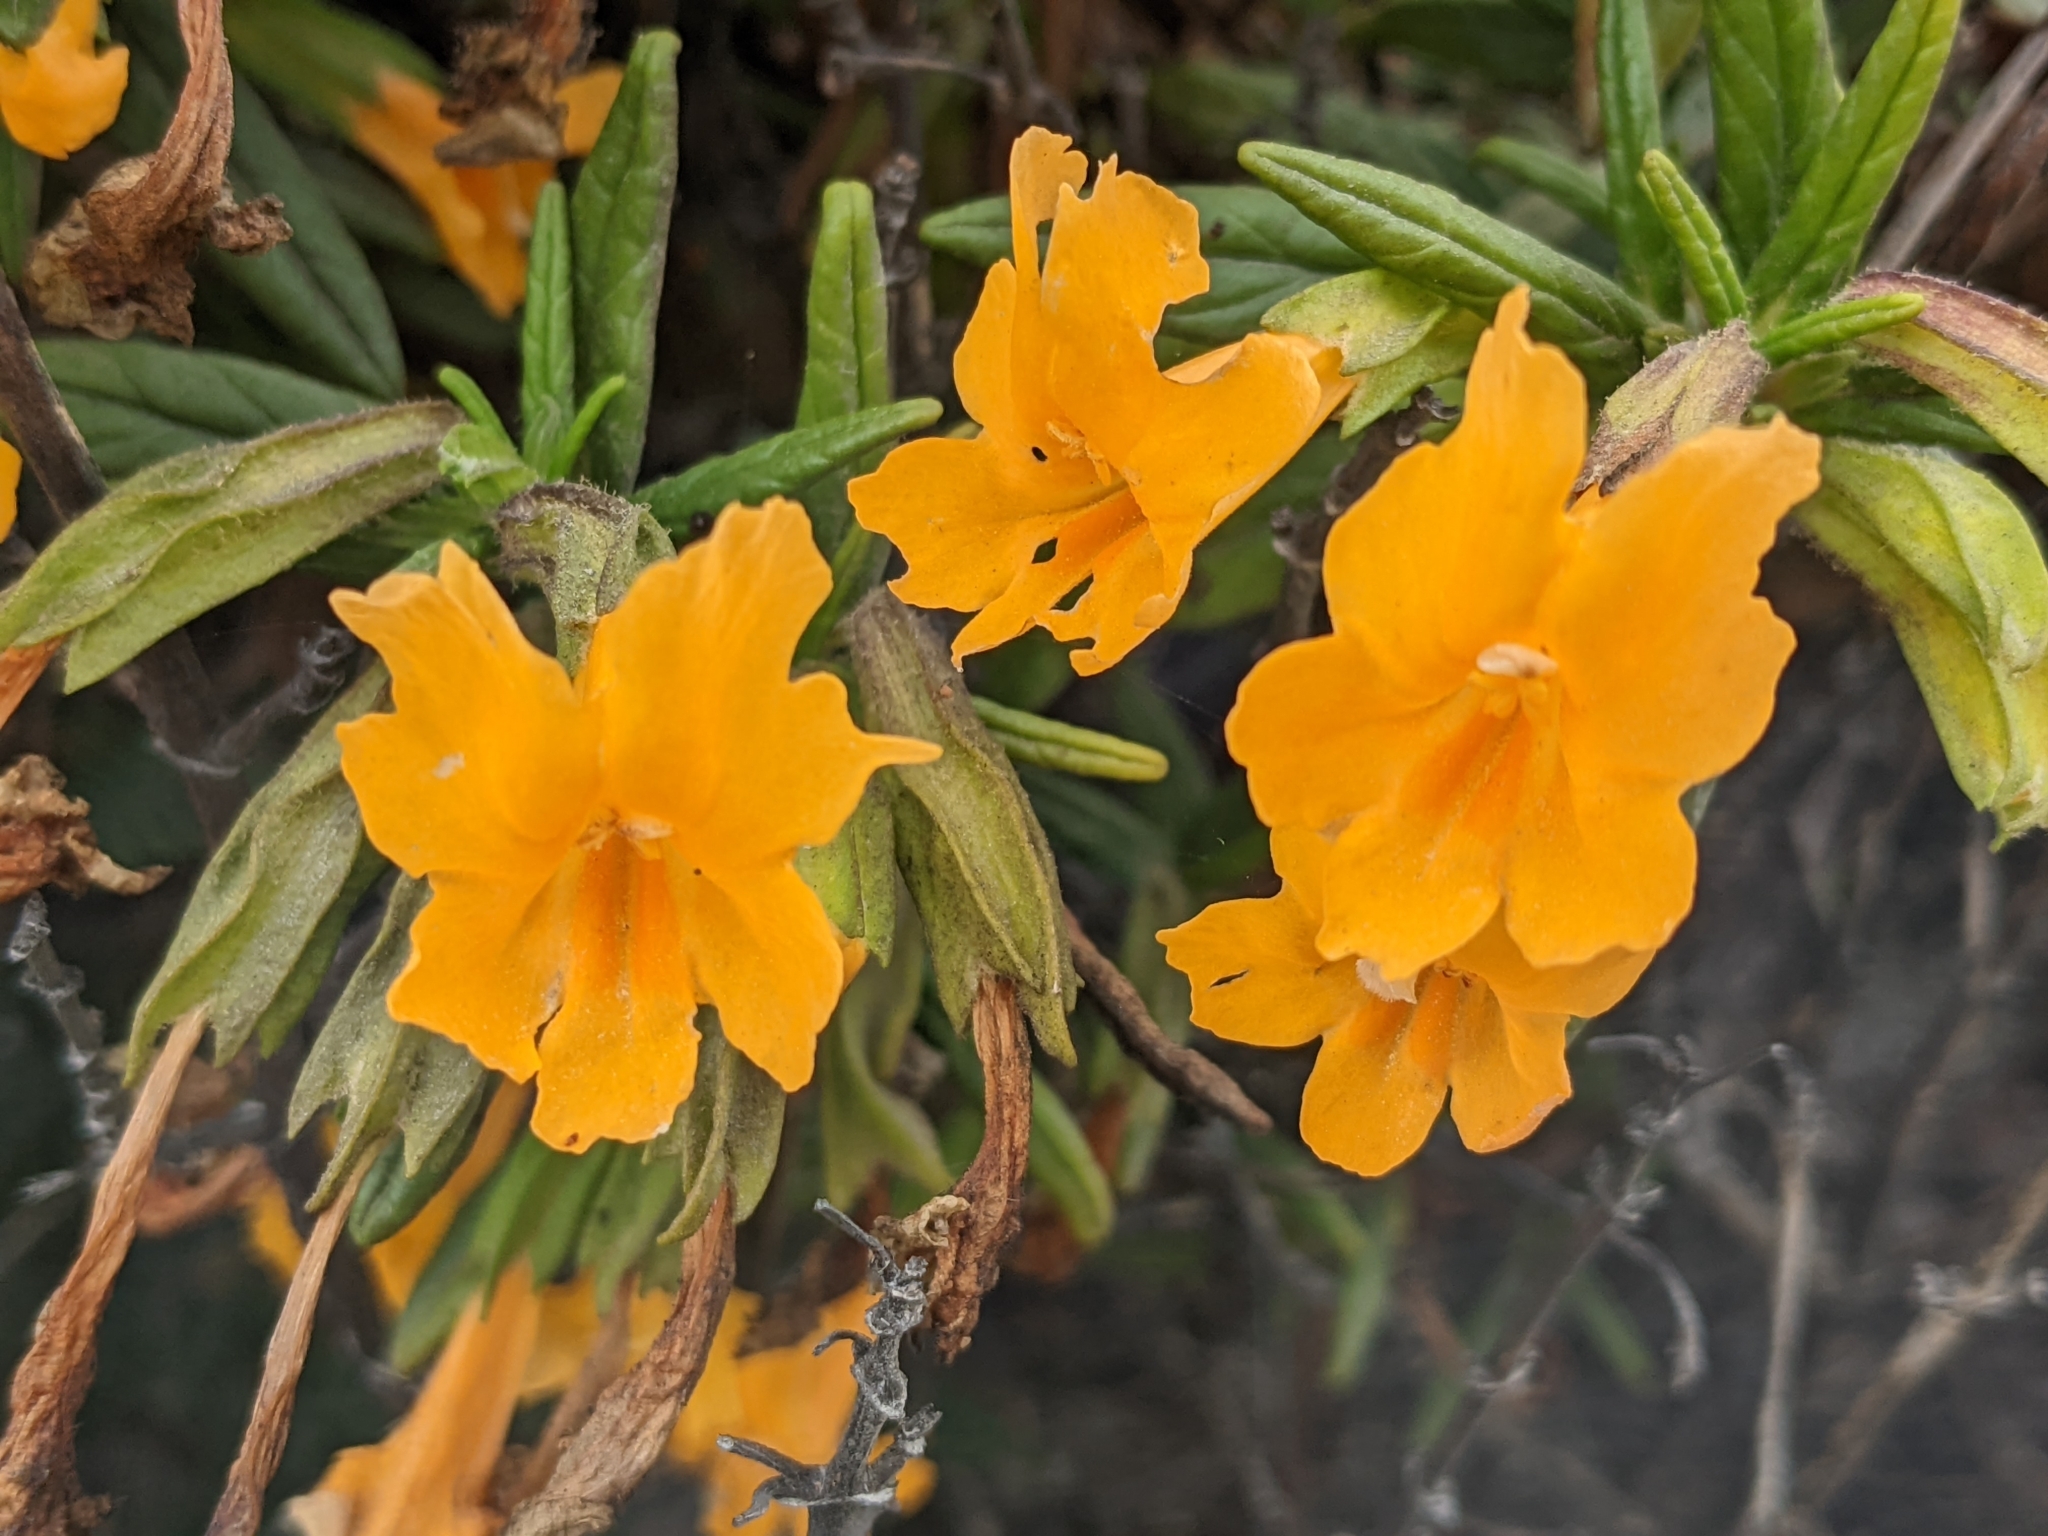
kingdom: Plantae
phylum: Tracheophyta
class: Magnoliopsida
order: Lamiales
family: Phrymaceae
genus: Diplacus
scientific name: Diplacus aurantiacus
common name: Bush monkey-flower
